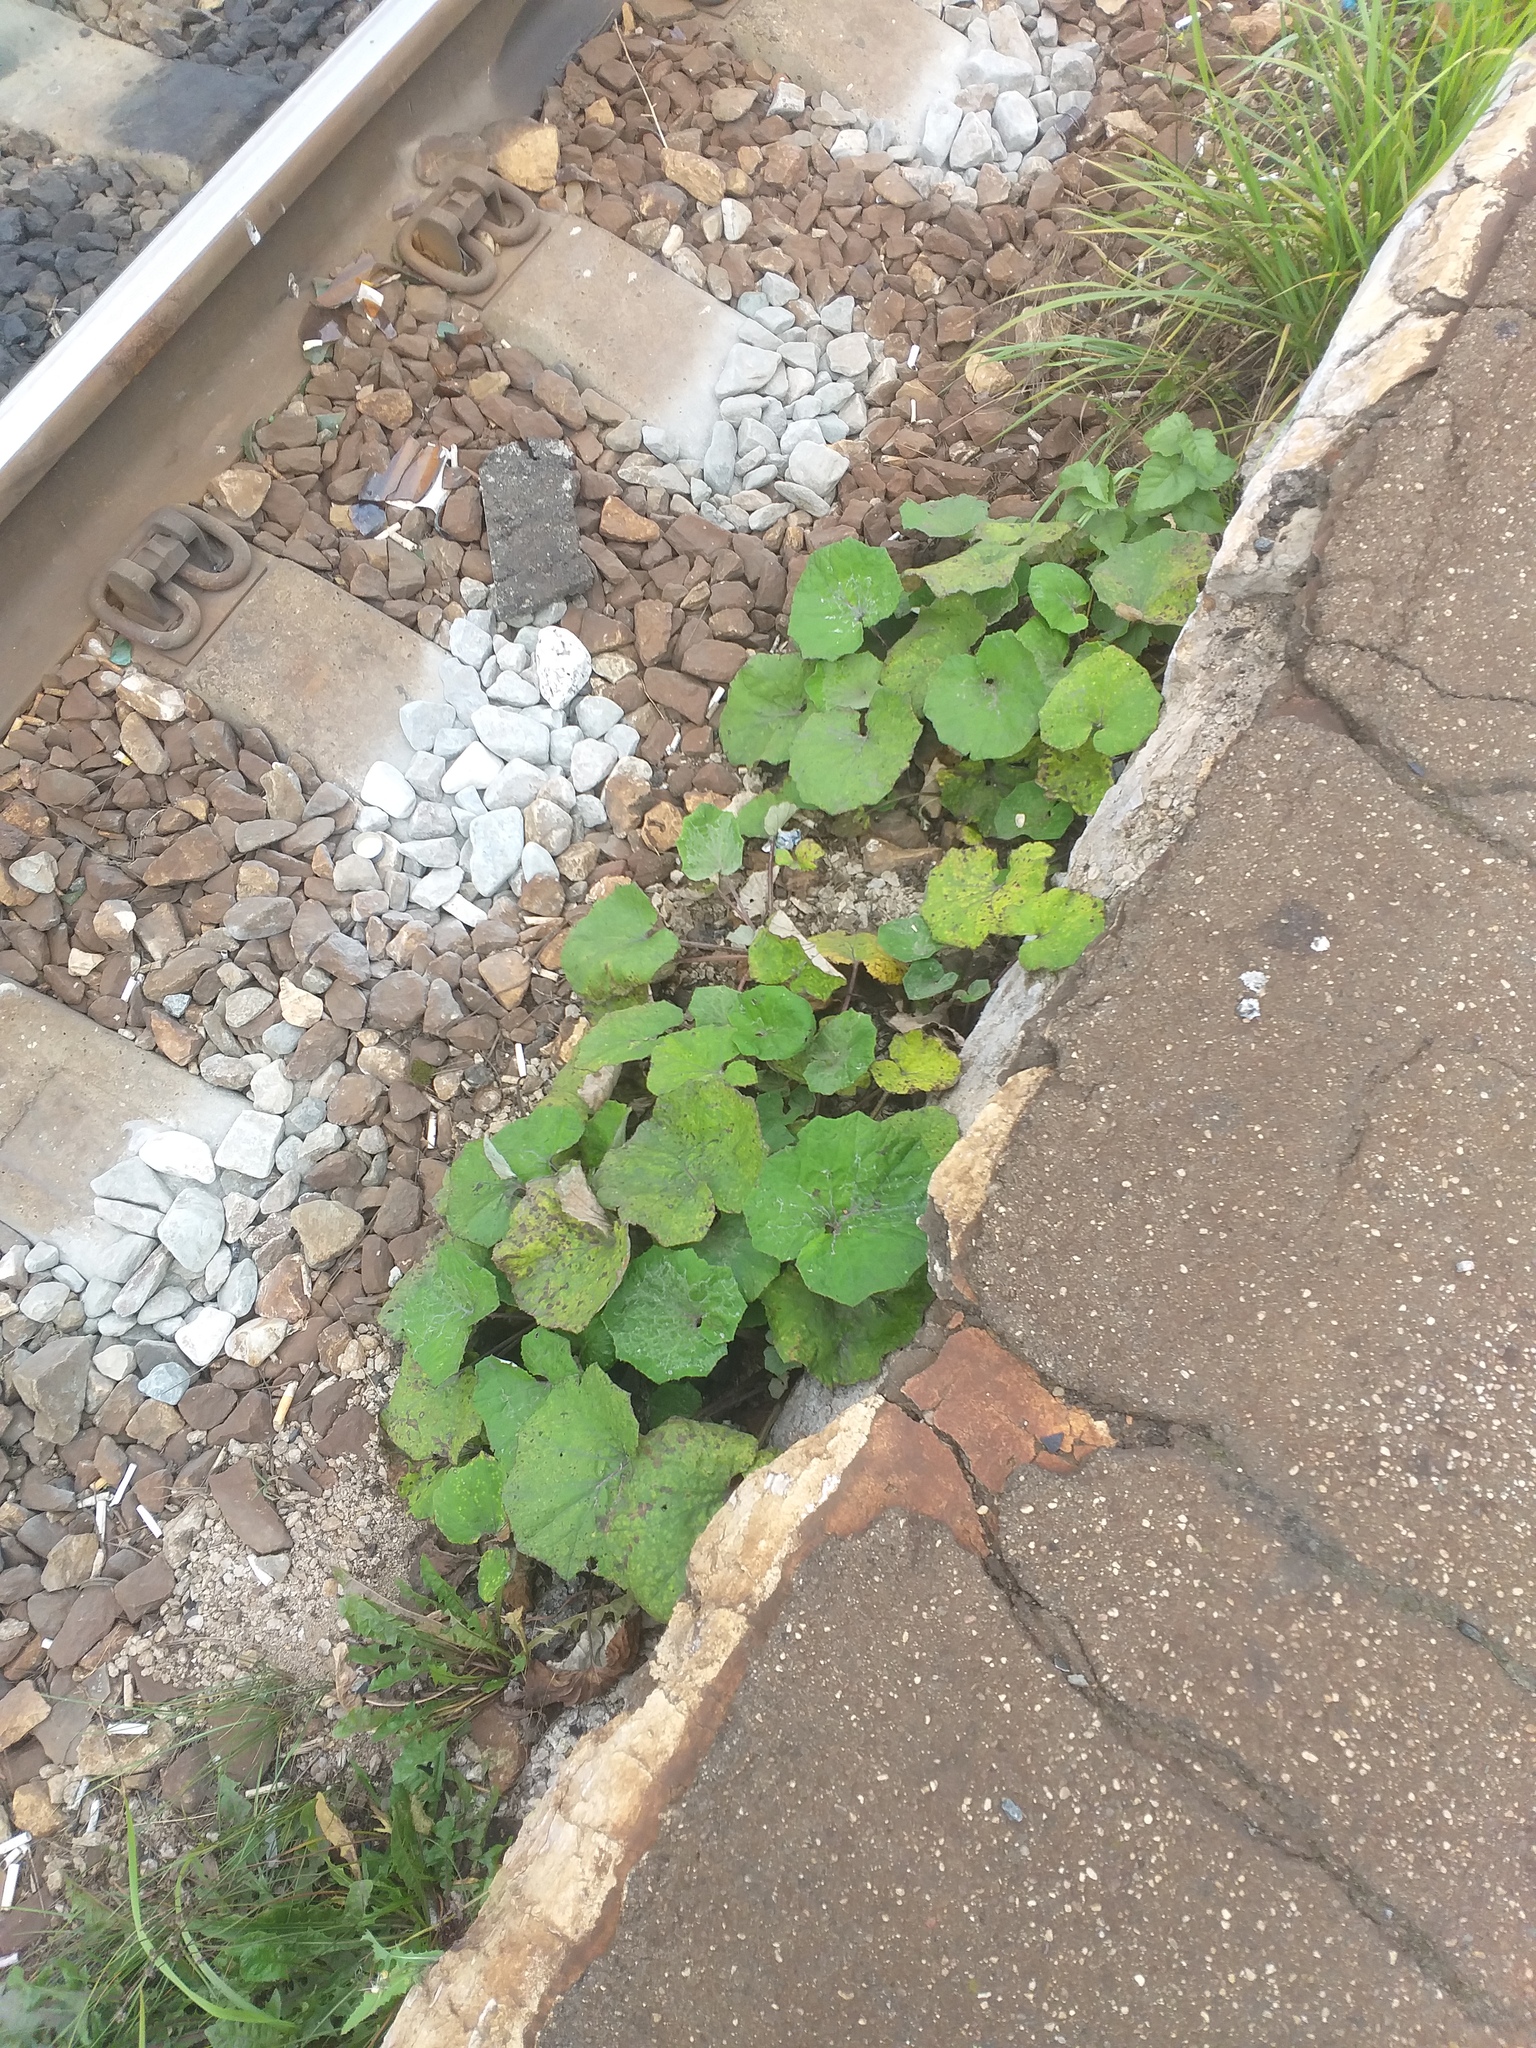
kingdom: Plantae
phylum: Tracheophyta
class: Magnoliopsida
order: Asterales
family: Asteraceae
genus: Tussilago
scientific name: Tussilago farfara
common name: Coltsfoot
